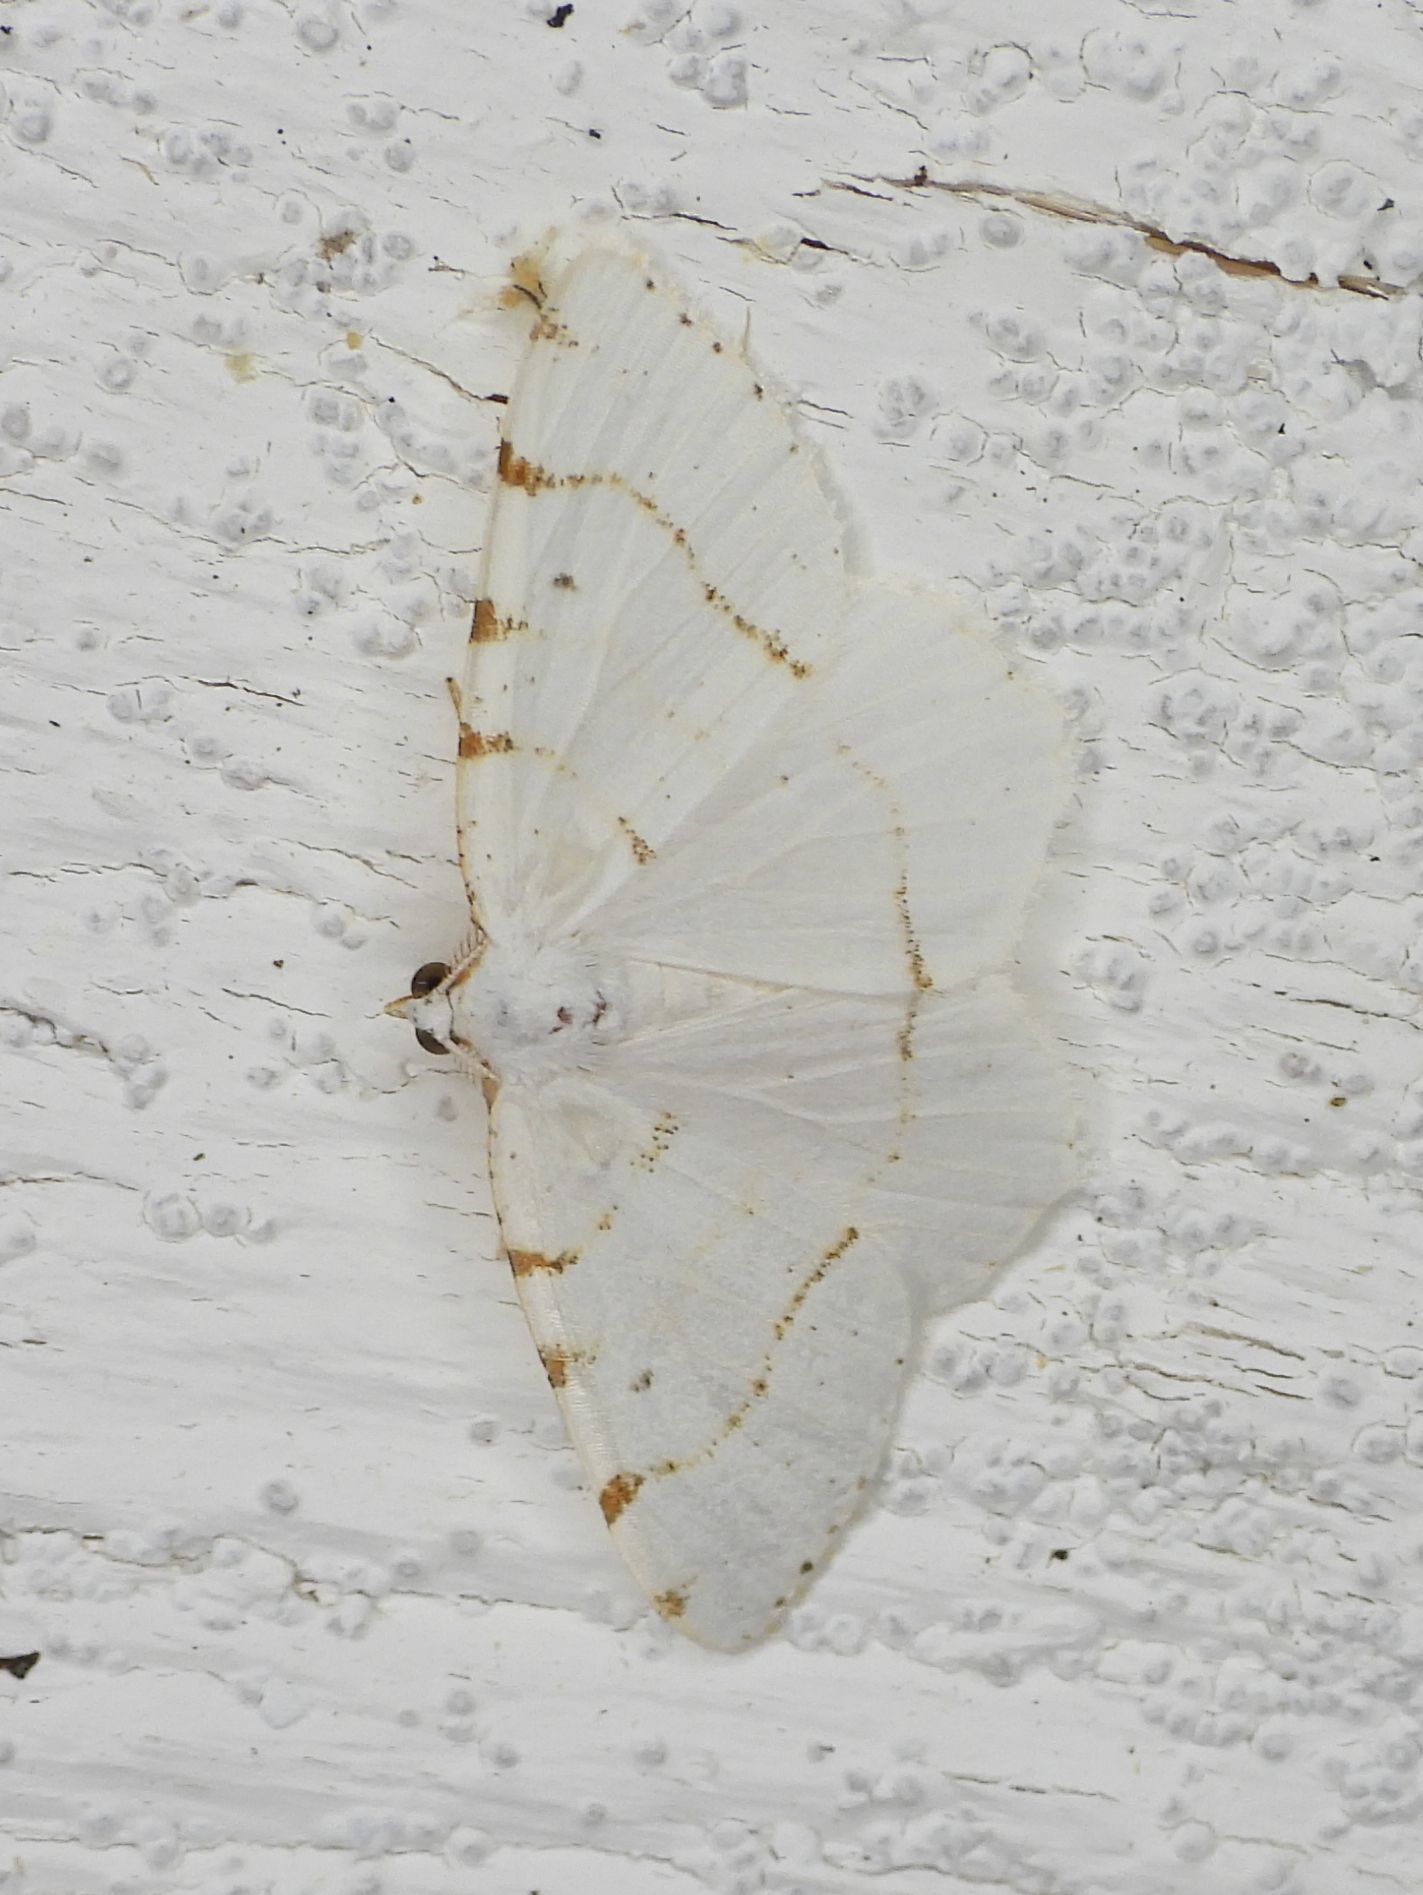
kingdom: Animalia
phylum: Arthropoda
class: Insecta
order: Lepidoptera
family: Geometridae
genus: Macaria
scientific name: Macaria pustularia
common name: Lesser maple spanworm moth
